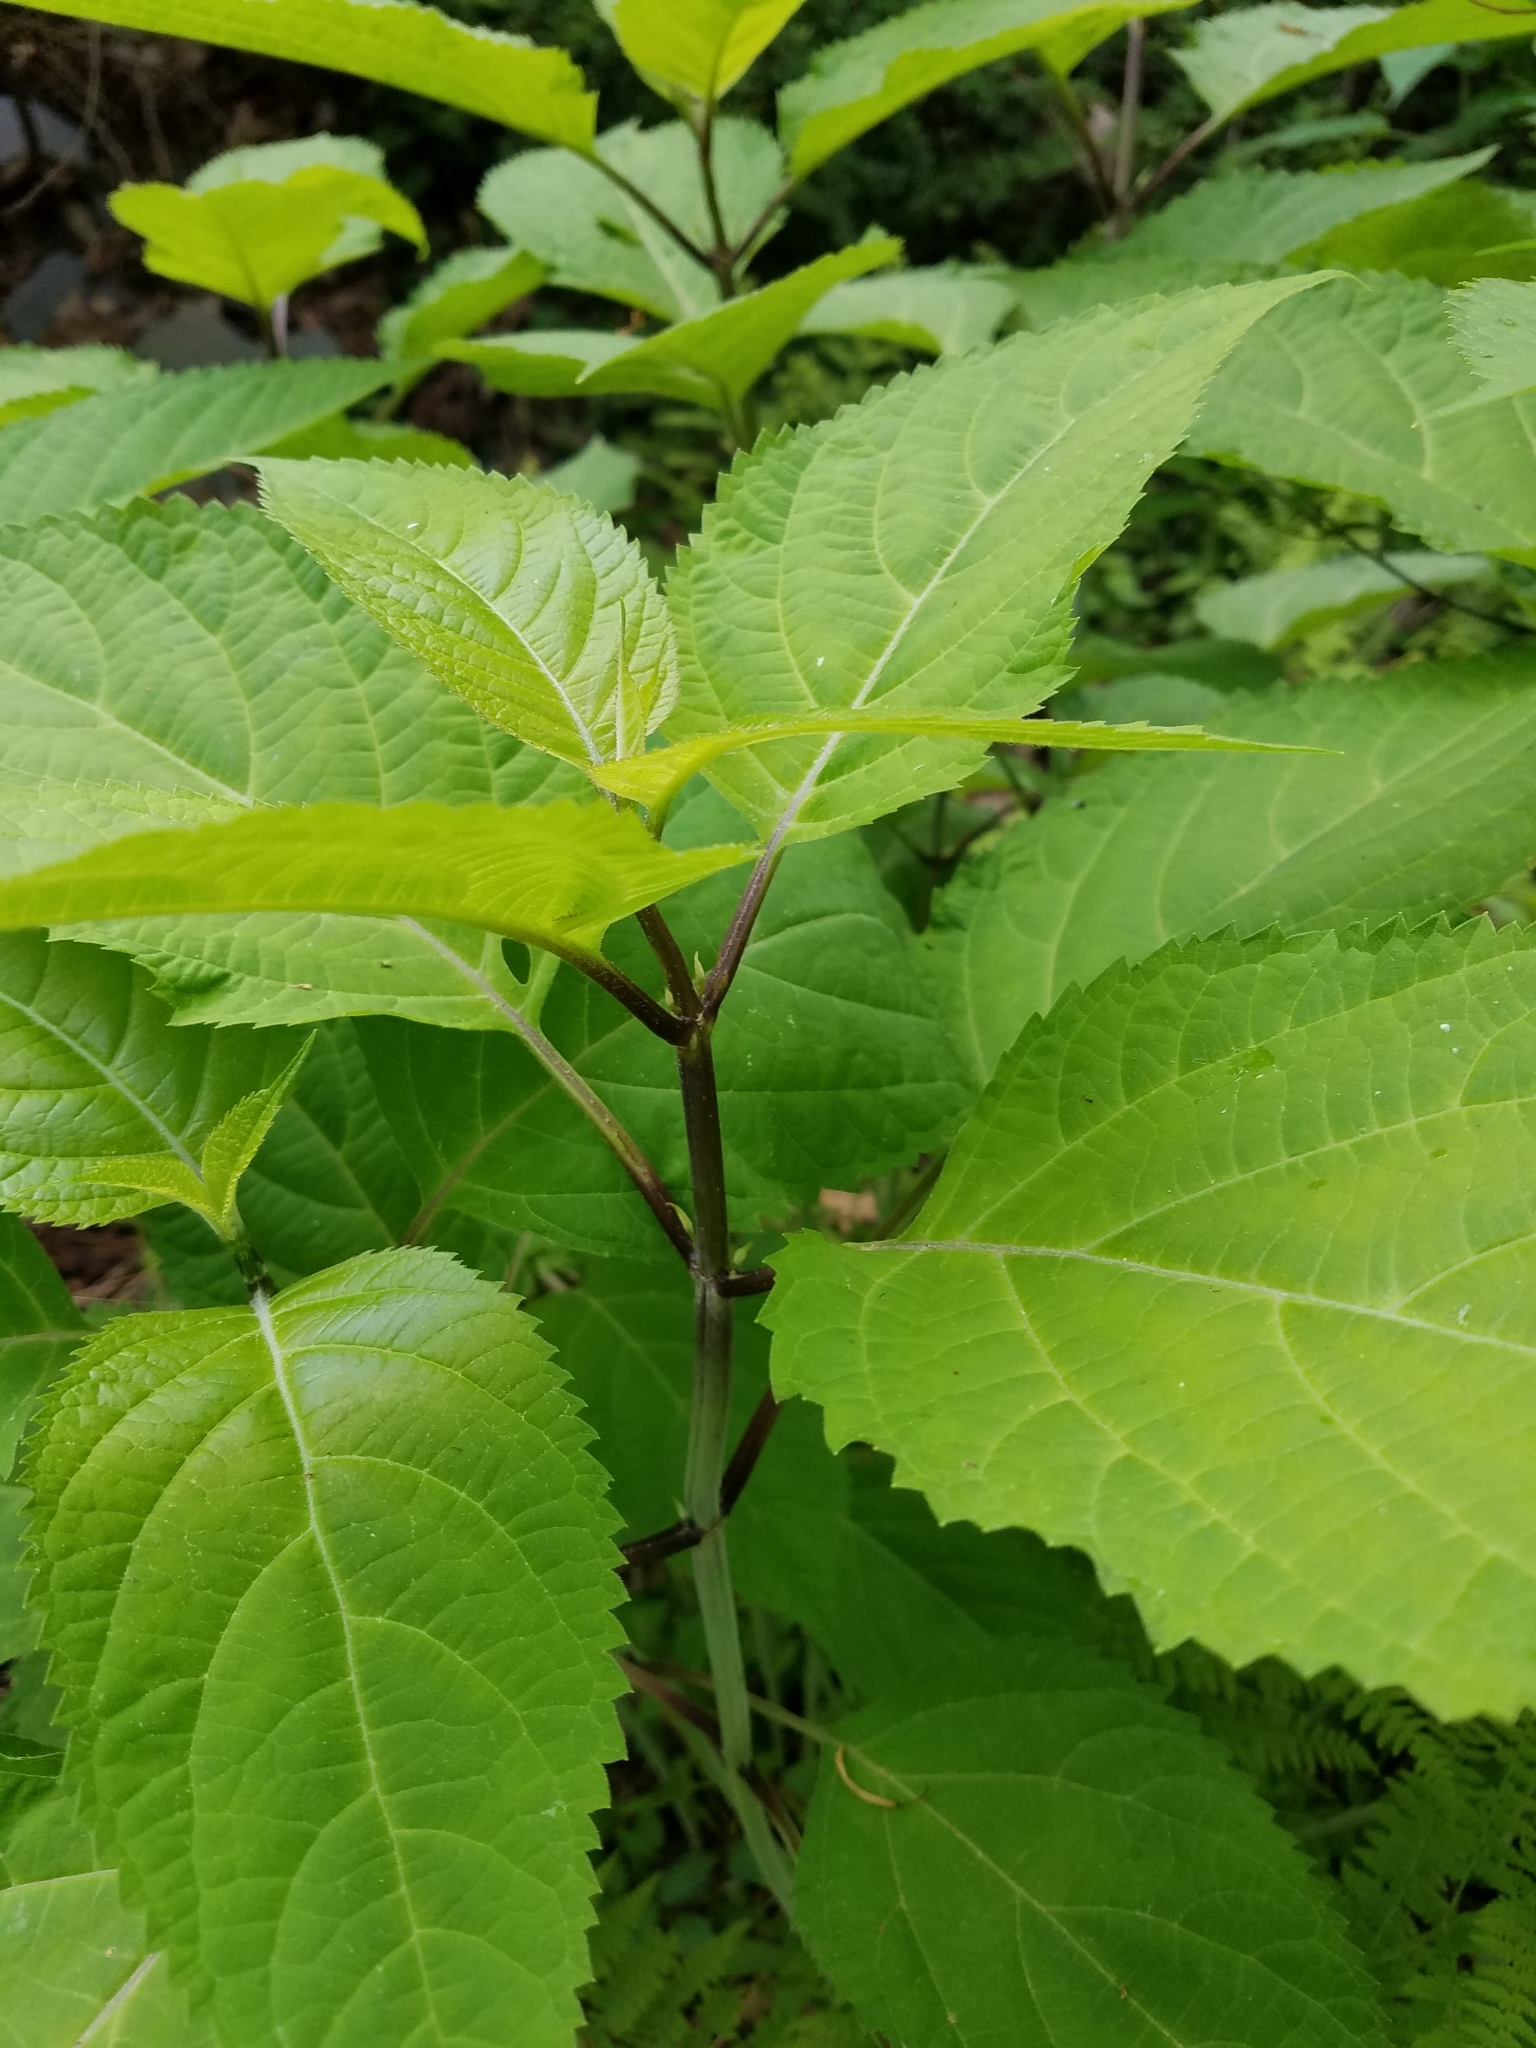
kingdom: Plantae
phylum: Tracheophyta
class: Magnoliopsida
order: Lamiales
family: Lamiaceae
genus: Collinsonia
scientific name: Collinsonia canadensis
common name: Northern horsebalm
